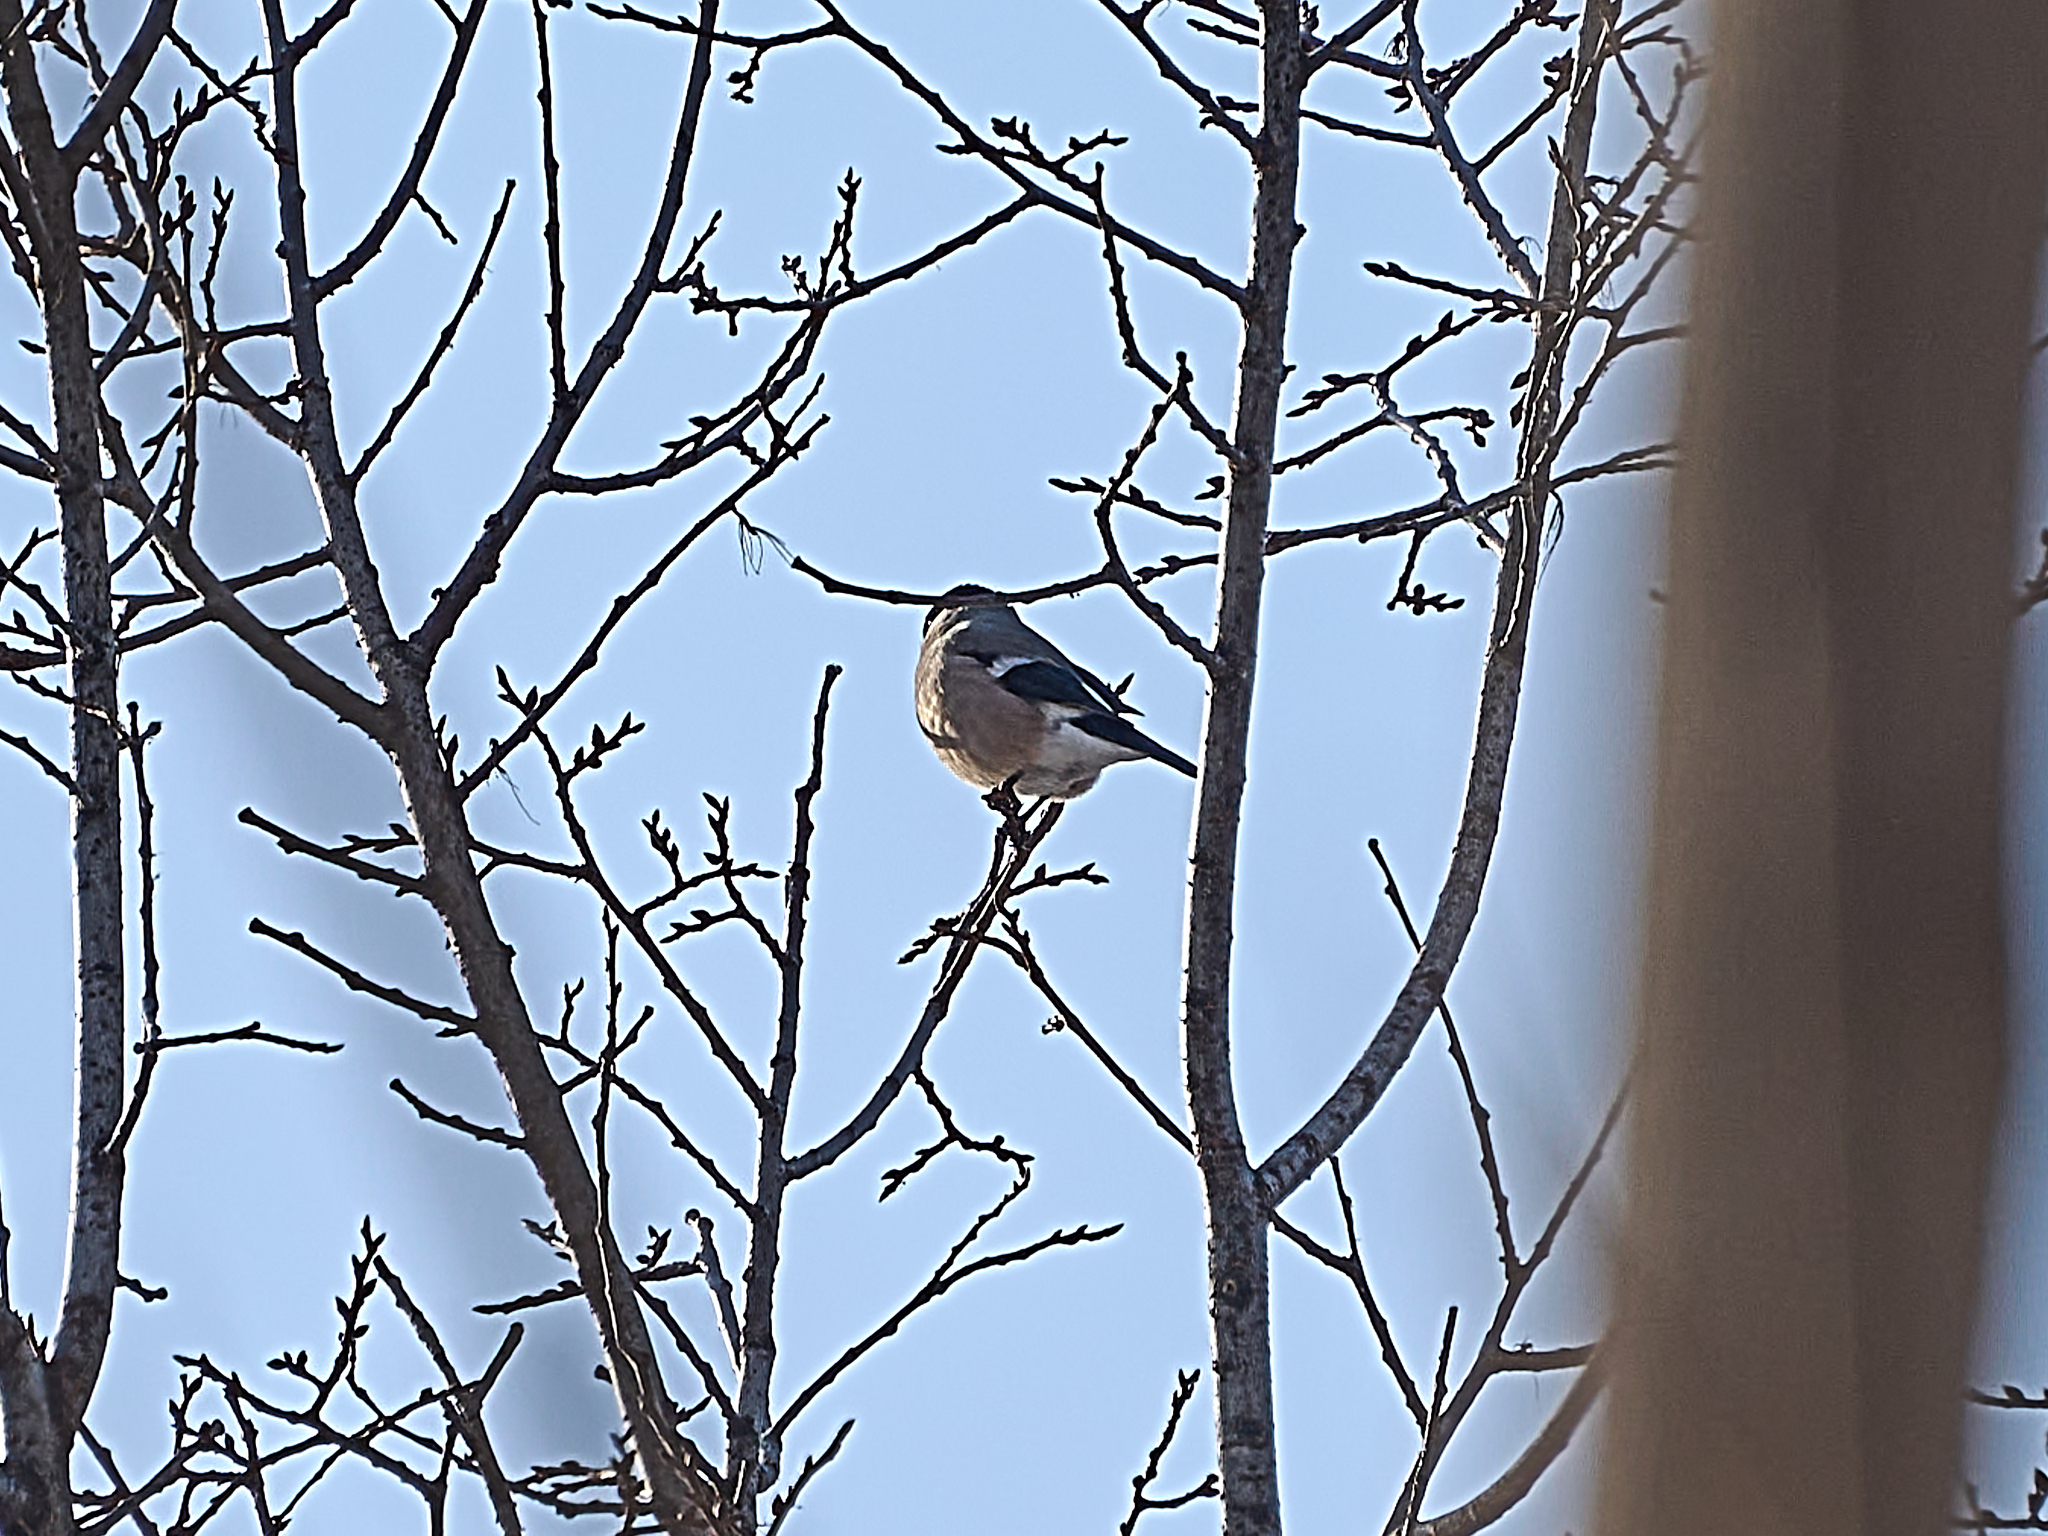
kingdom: Animalia
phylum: Chordata
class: Aves
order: Passeriformes
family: Fringillidae
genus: Pyrrhula
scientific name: Pyrrhula pyrrhula
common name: Eurasian bullfinch
